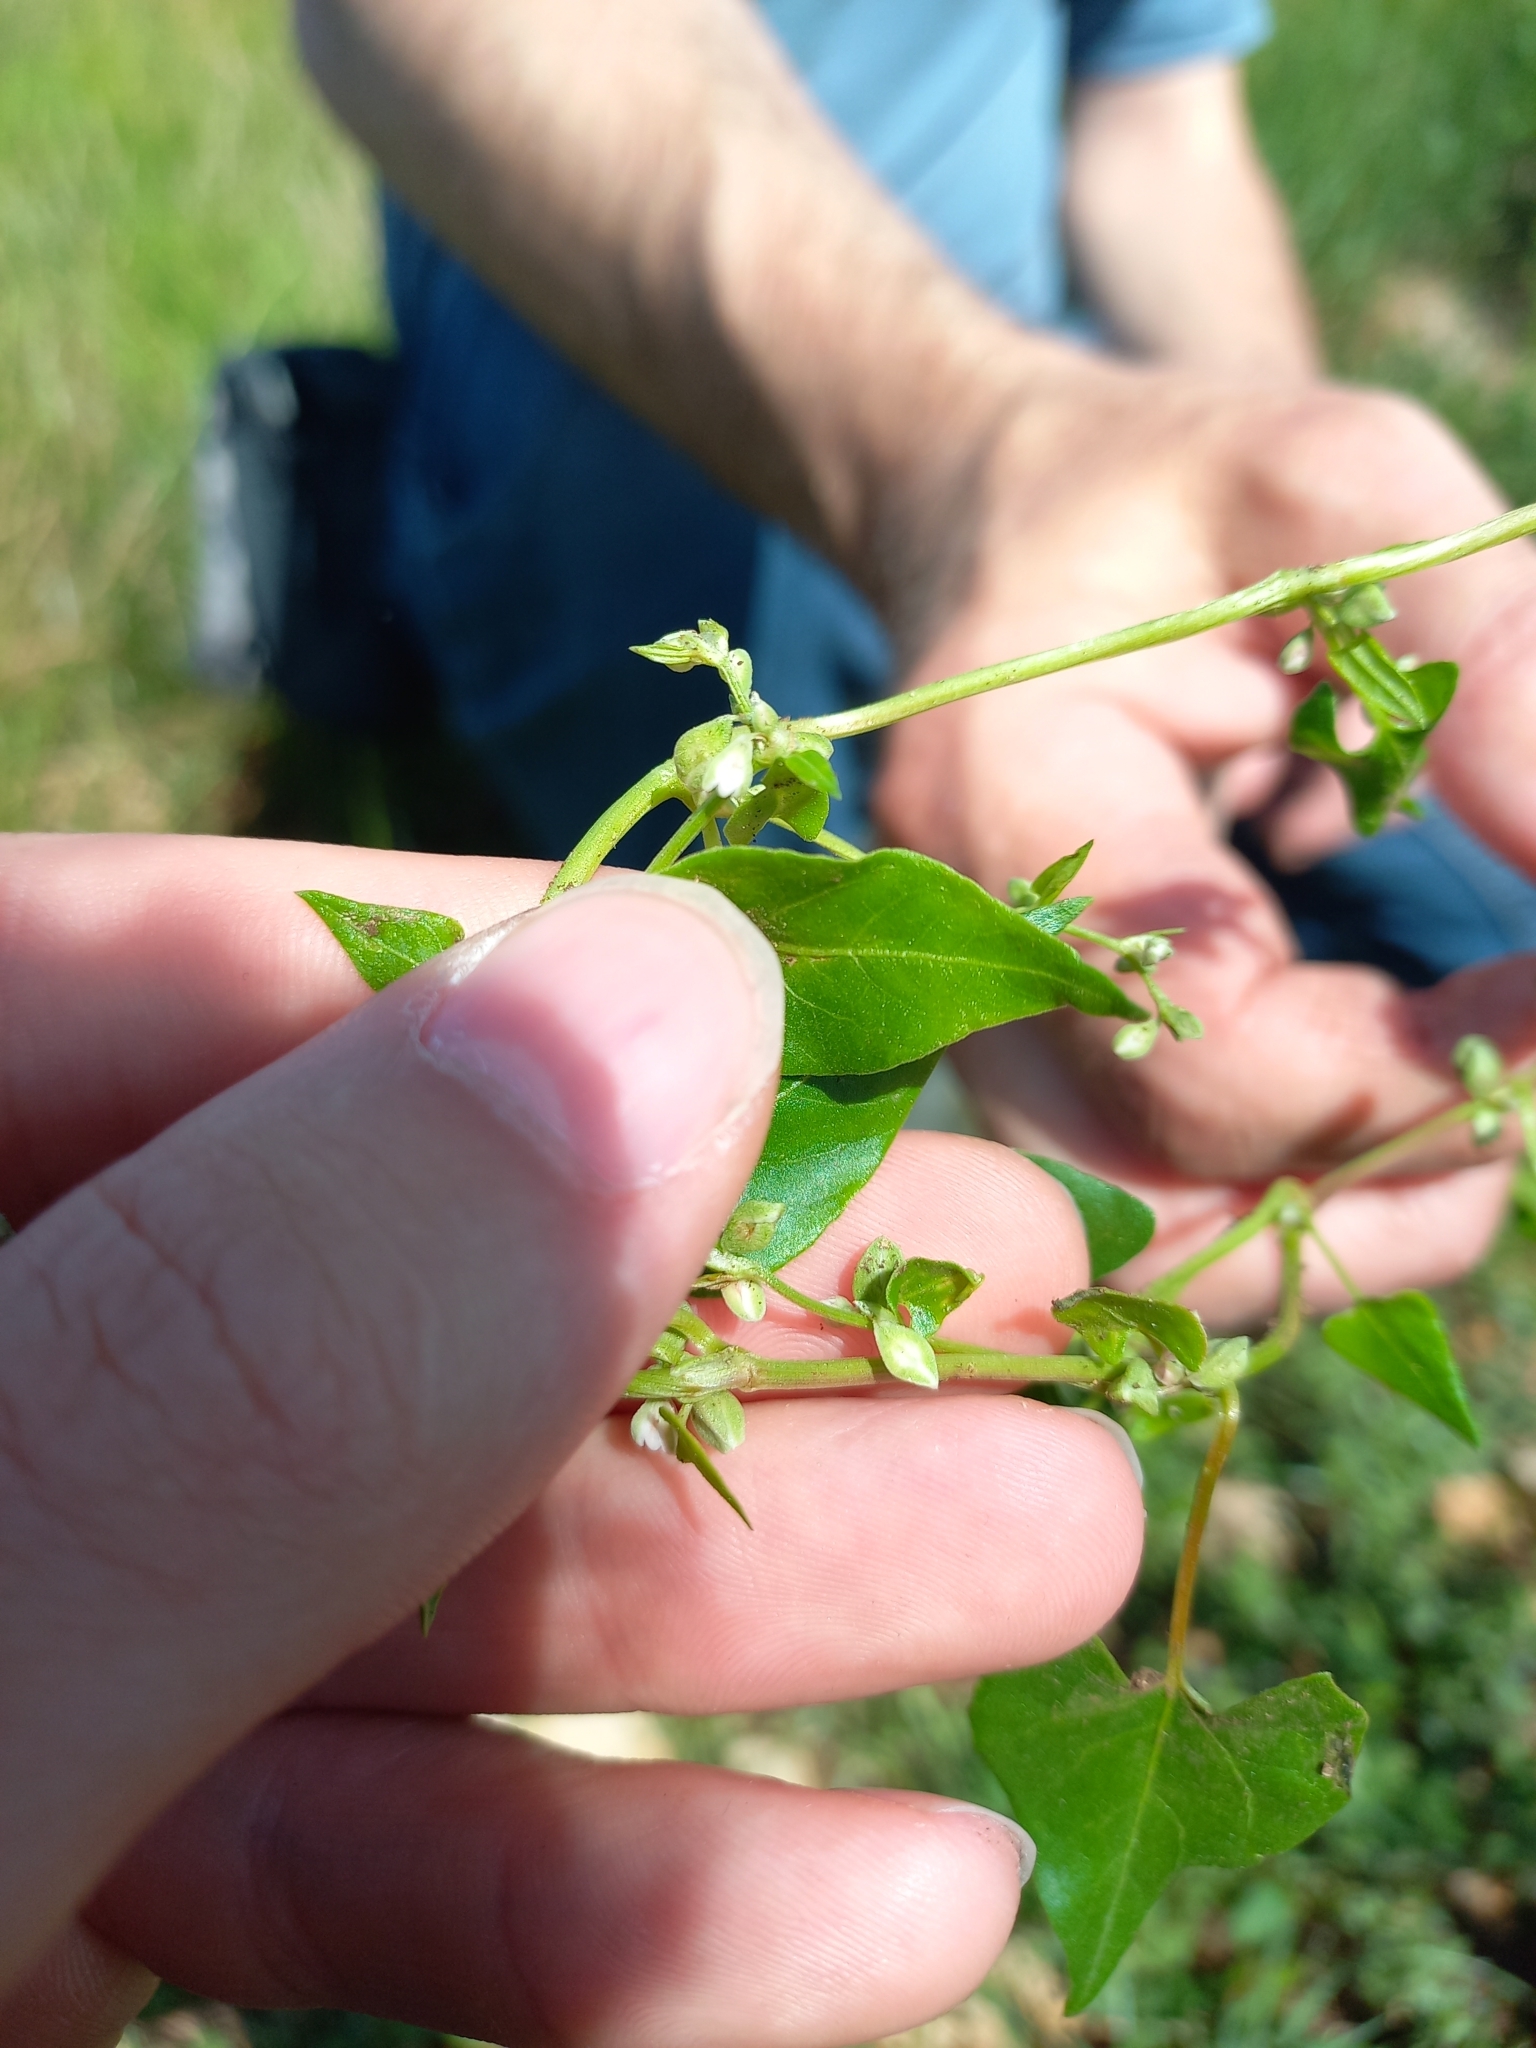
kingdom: Plantae
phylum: Tracheophyta
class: Magnoliopsida
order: Caryophyllales
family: Polygonaceae
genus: Fallopia
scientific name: Fallopia convolvulus
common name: Black bindweed
